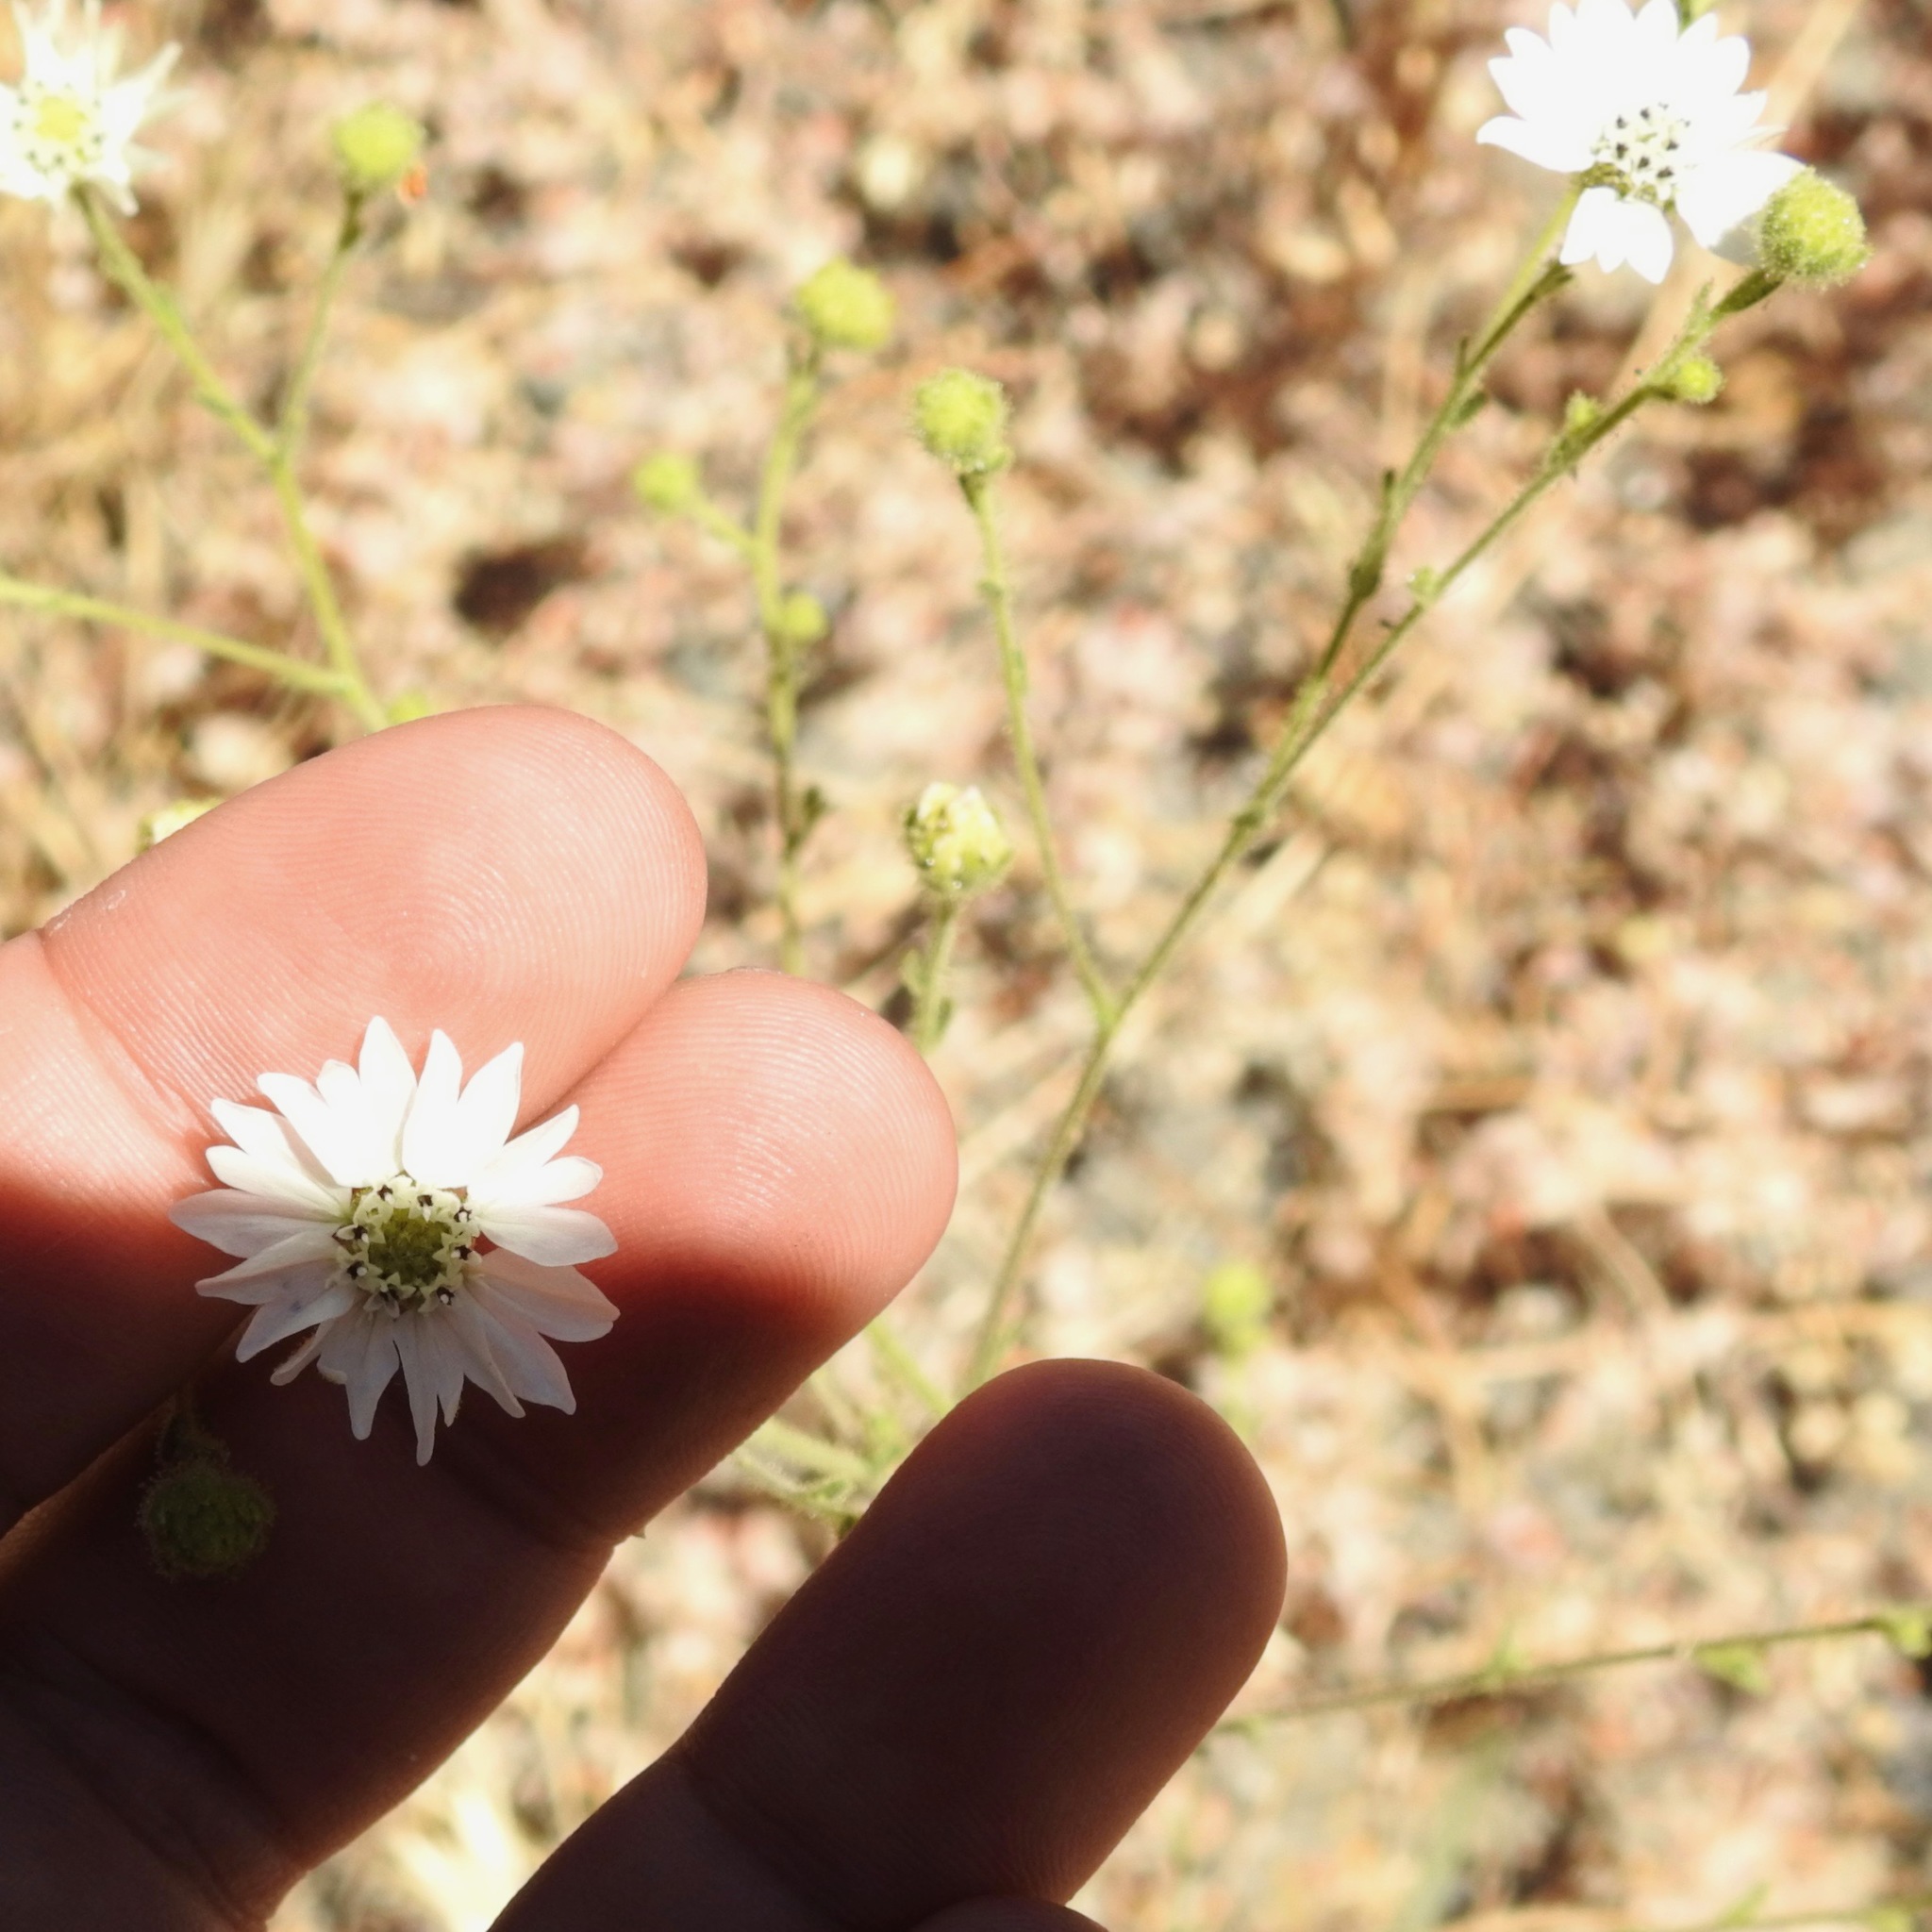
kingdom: Plantae
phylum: Tracheophyta
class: Magnoliopsida
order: Asterales
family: Asteraceae
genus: Hemizonia
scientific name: Hemizonia congesta
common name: Hayfield tarweed
